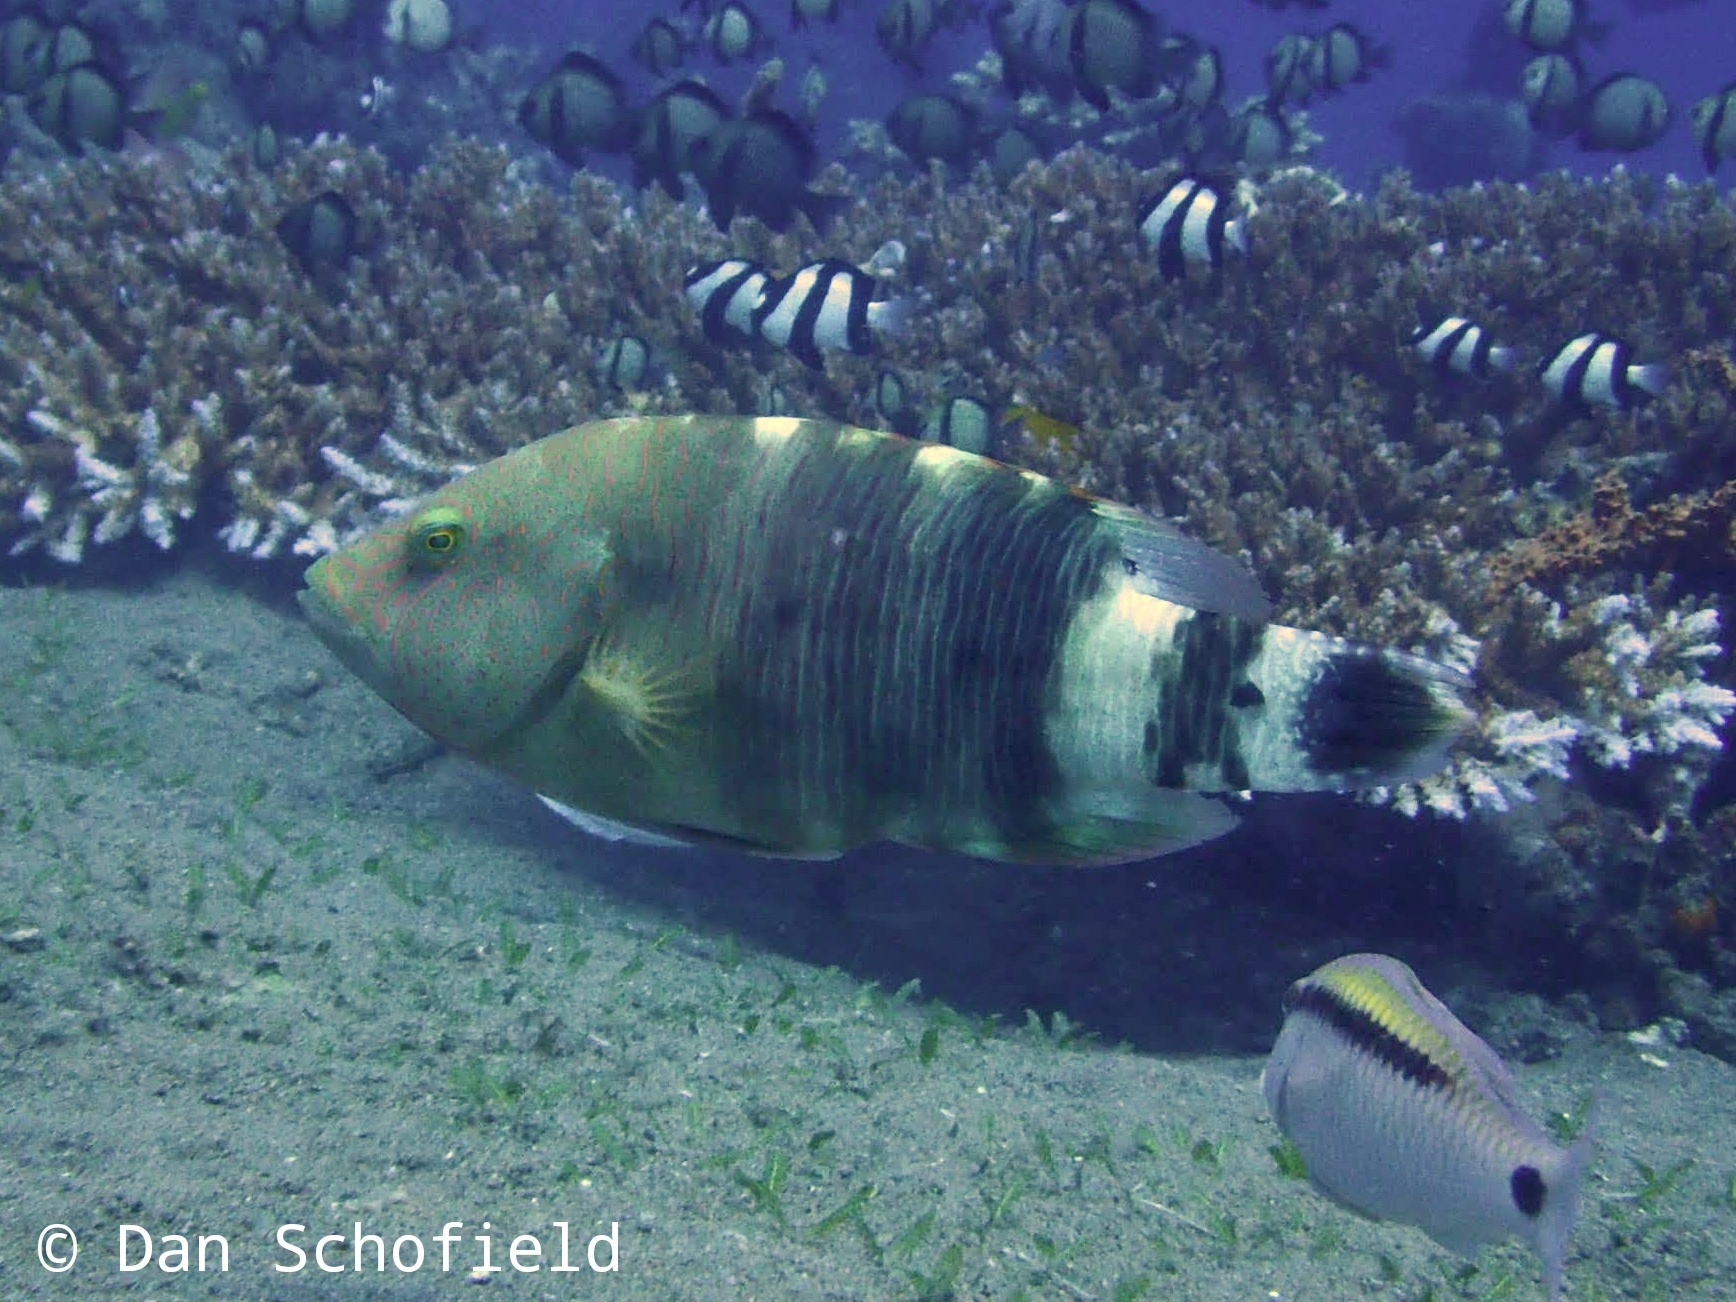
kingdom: Animalia
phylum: Chordata
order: Perciformes
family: Labridae
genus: Cheilinus
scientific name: Cheilinus trilobatus
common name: Tripletail maori wrasse
